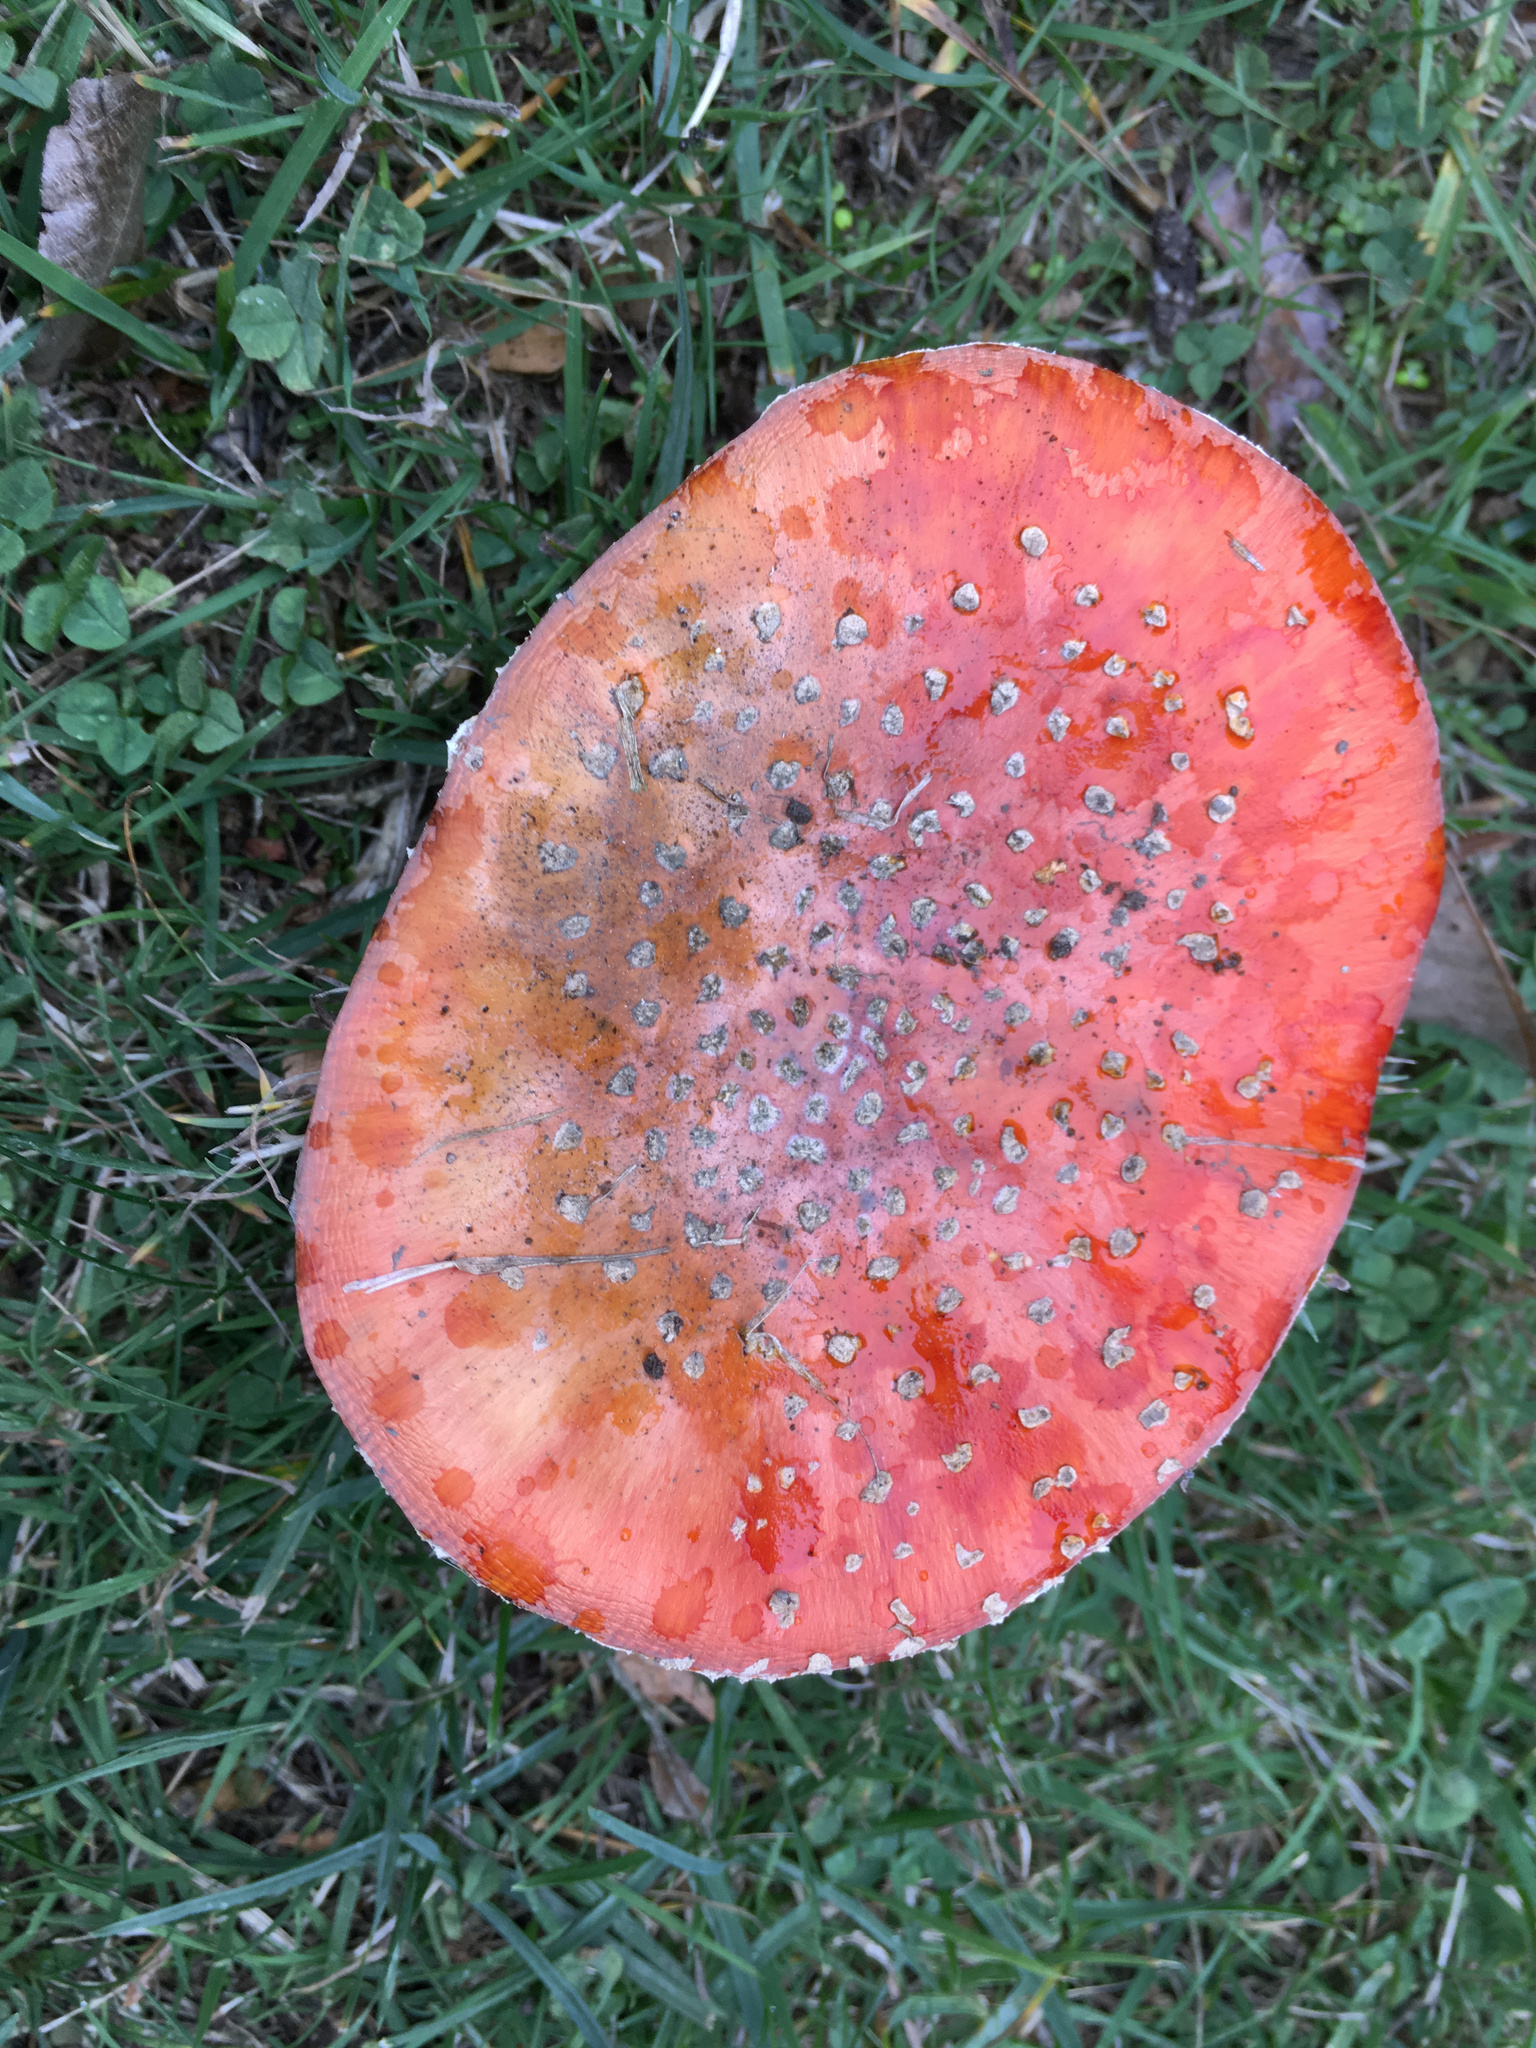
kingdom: Fungi
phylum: Basidiomycota
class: Agaricomycetes
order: Agaricales
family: Amanitaceae
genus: Amanita
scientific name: Amanita muscaria
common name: Fly agaric
